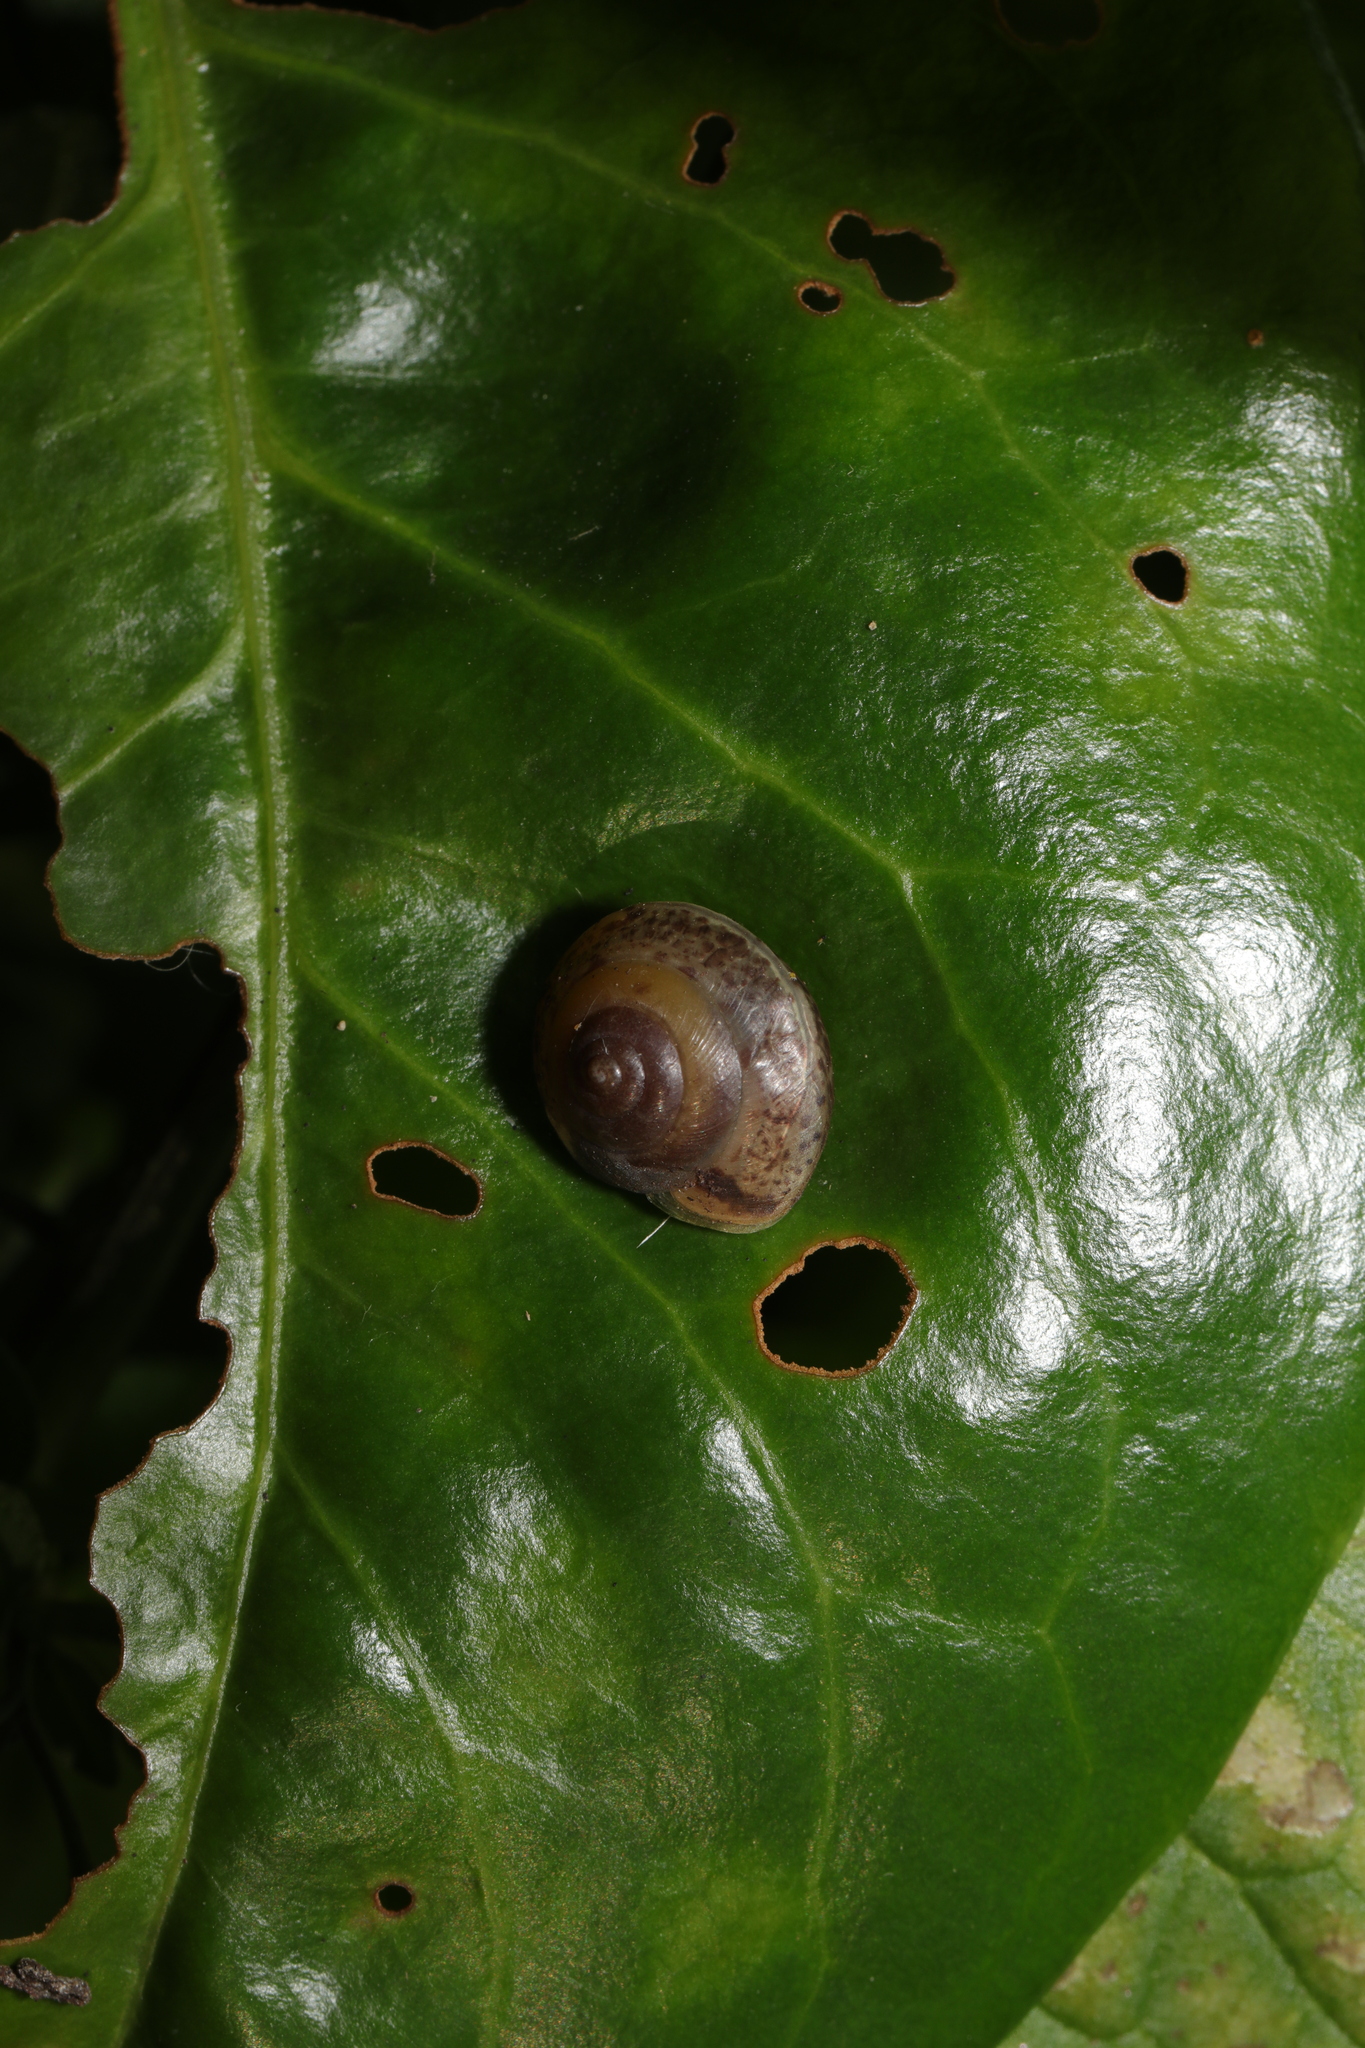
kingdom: Animalia
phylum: Mollusca
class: Gastropoda
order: Stylommatophora
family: Hygromiidae
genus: Hygromia
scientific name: Hygromia cinctella
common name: Girdled snail
